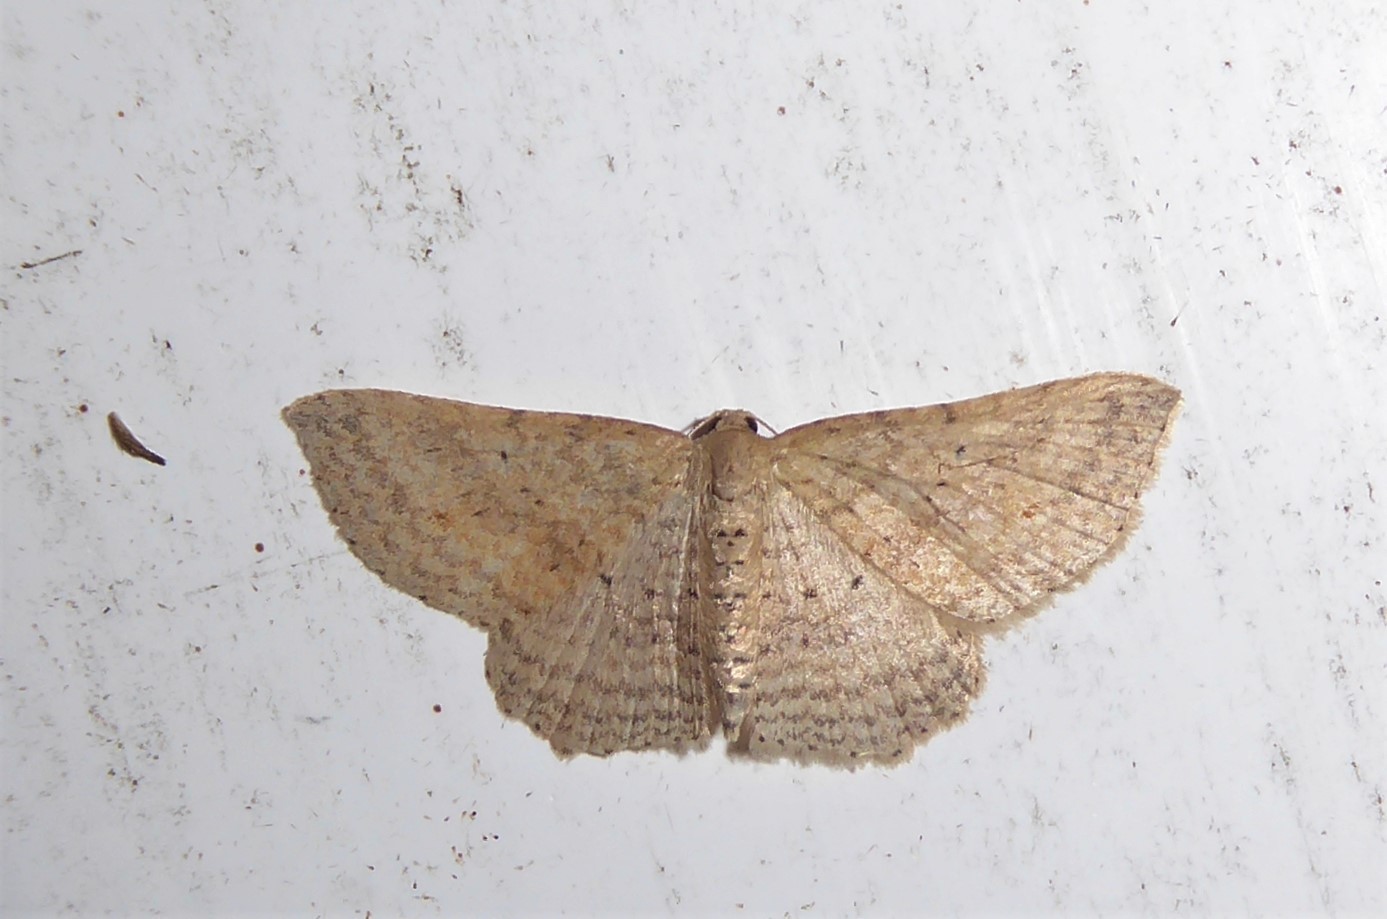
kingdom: Animalia
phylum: Arthropoda
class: Insecta
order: Lepidoptera
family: Geometridae
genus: Epicyme
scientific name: Epicyme rubropunctaria
